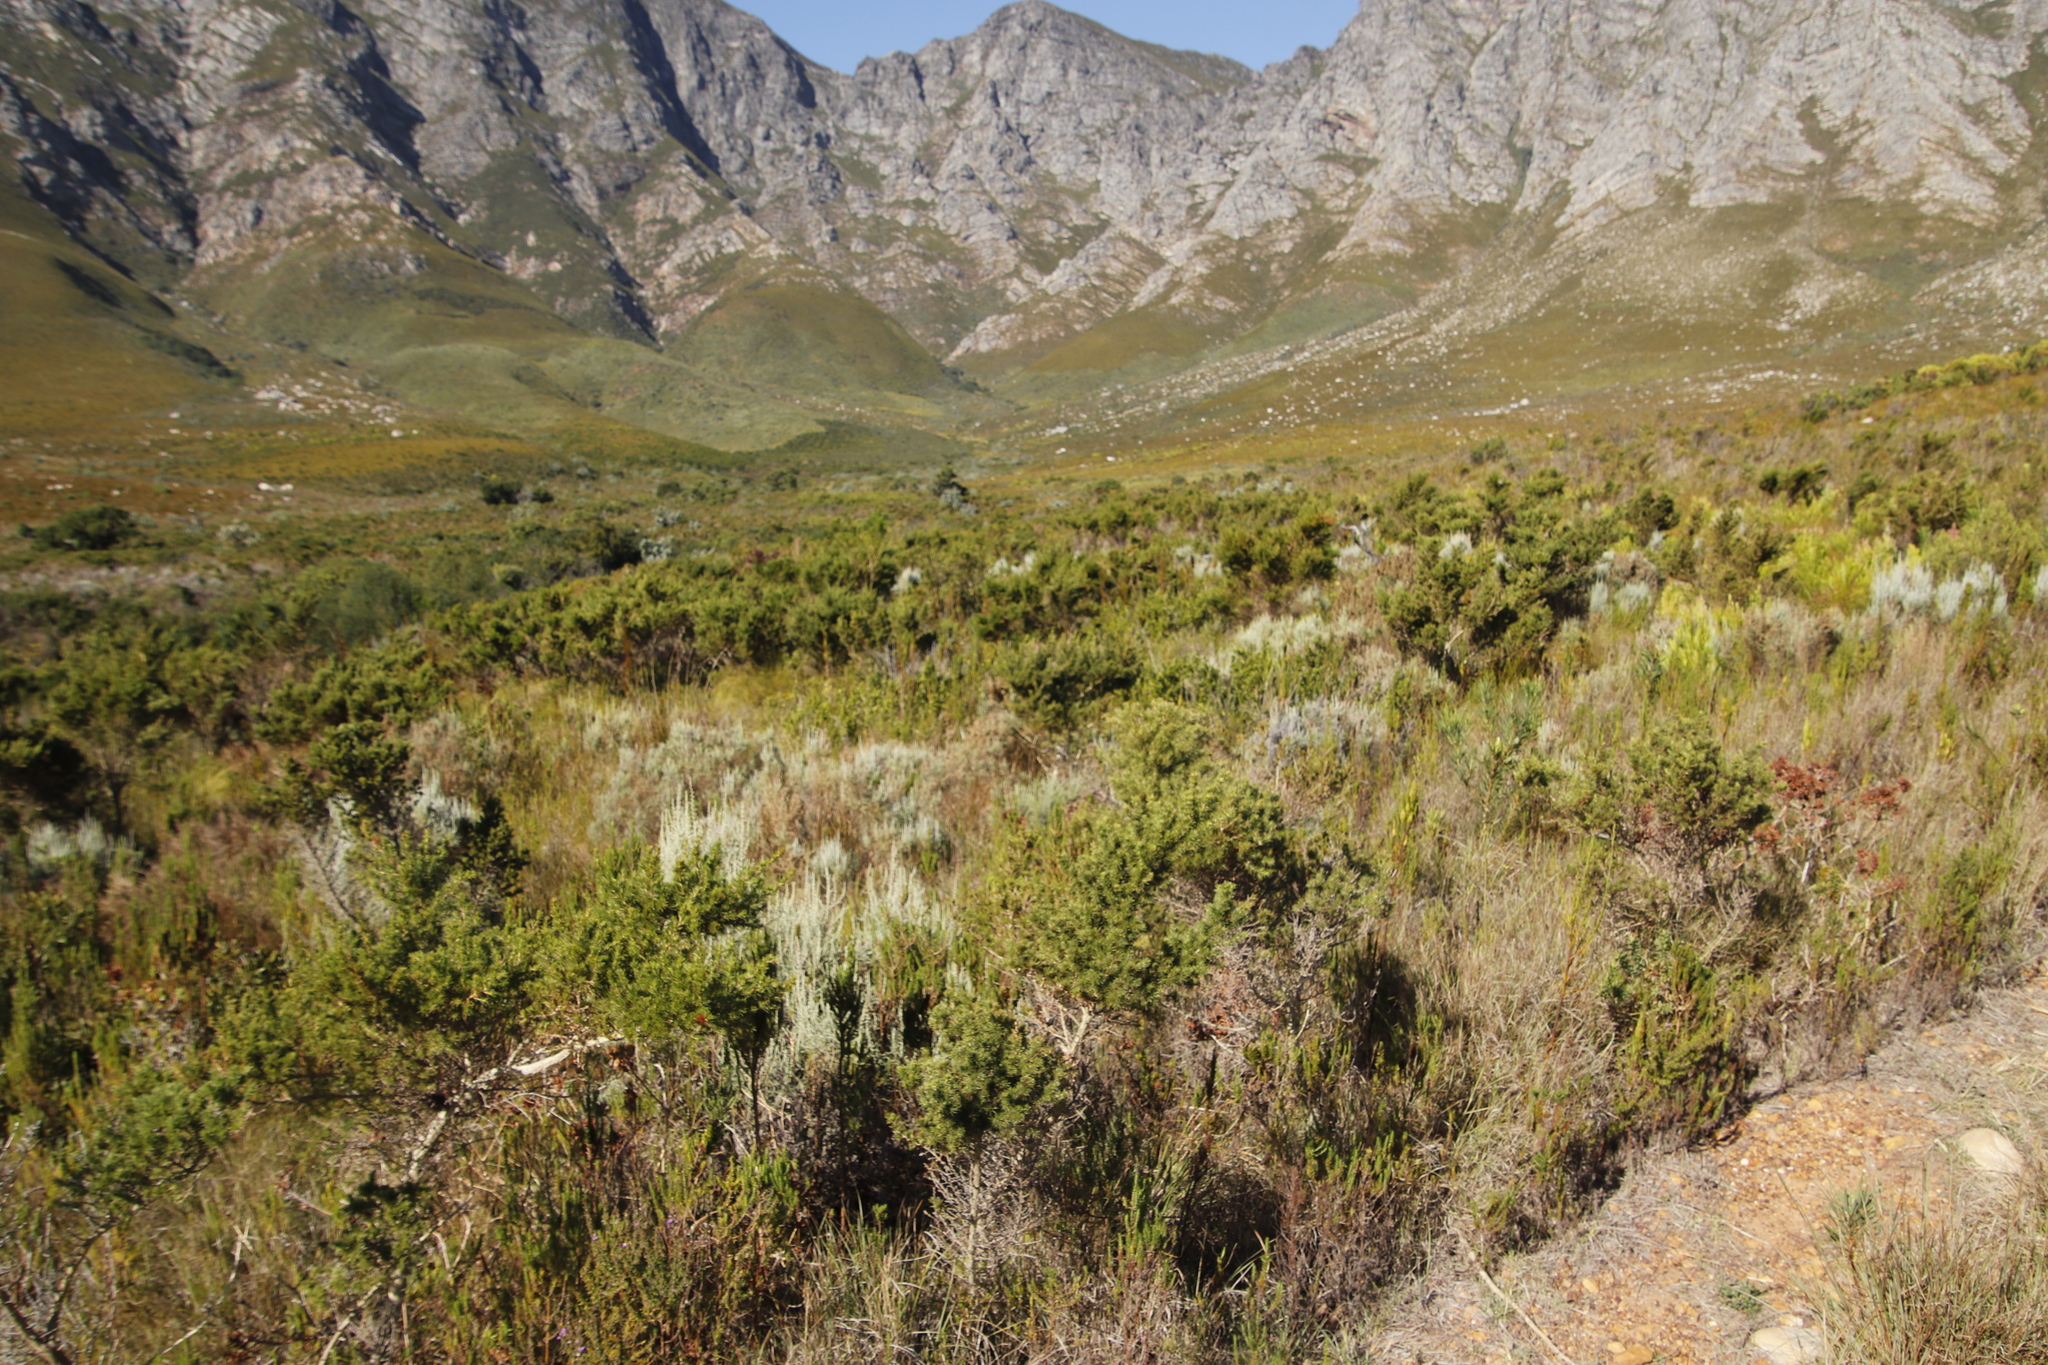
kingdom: Plantae
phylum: Tracheophyta
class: Magnoliopsida
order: Asterales
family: Asteraceae
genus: Seriphium
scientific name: Seriphium plumosum
